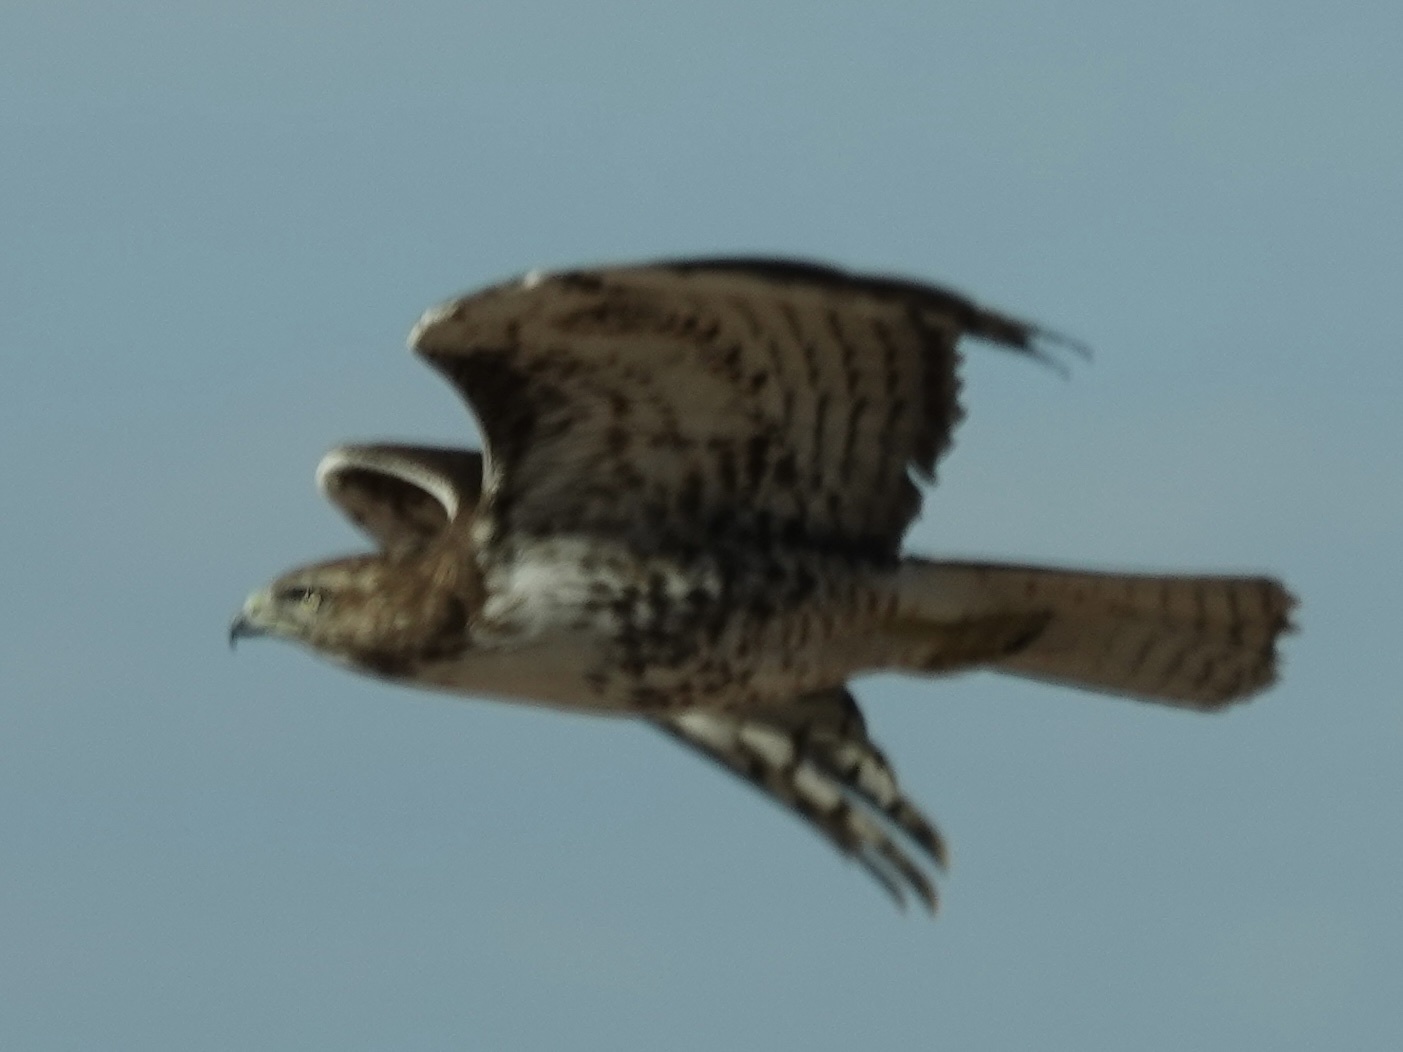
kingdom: Animalia
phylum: Chordata
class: Aves
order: Accipitriformes
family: Accipitridae
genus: Buteo
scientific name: Buteo jamaicensis
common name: Red-tailed hawk
